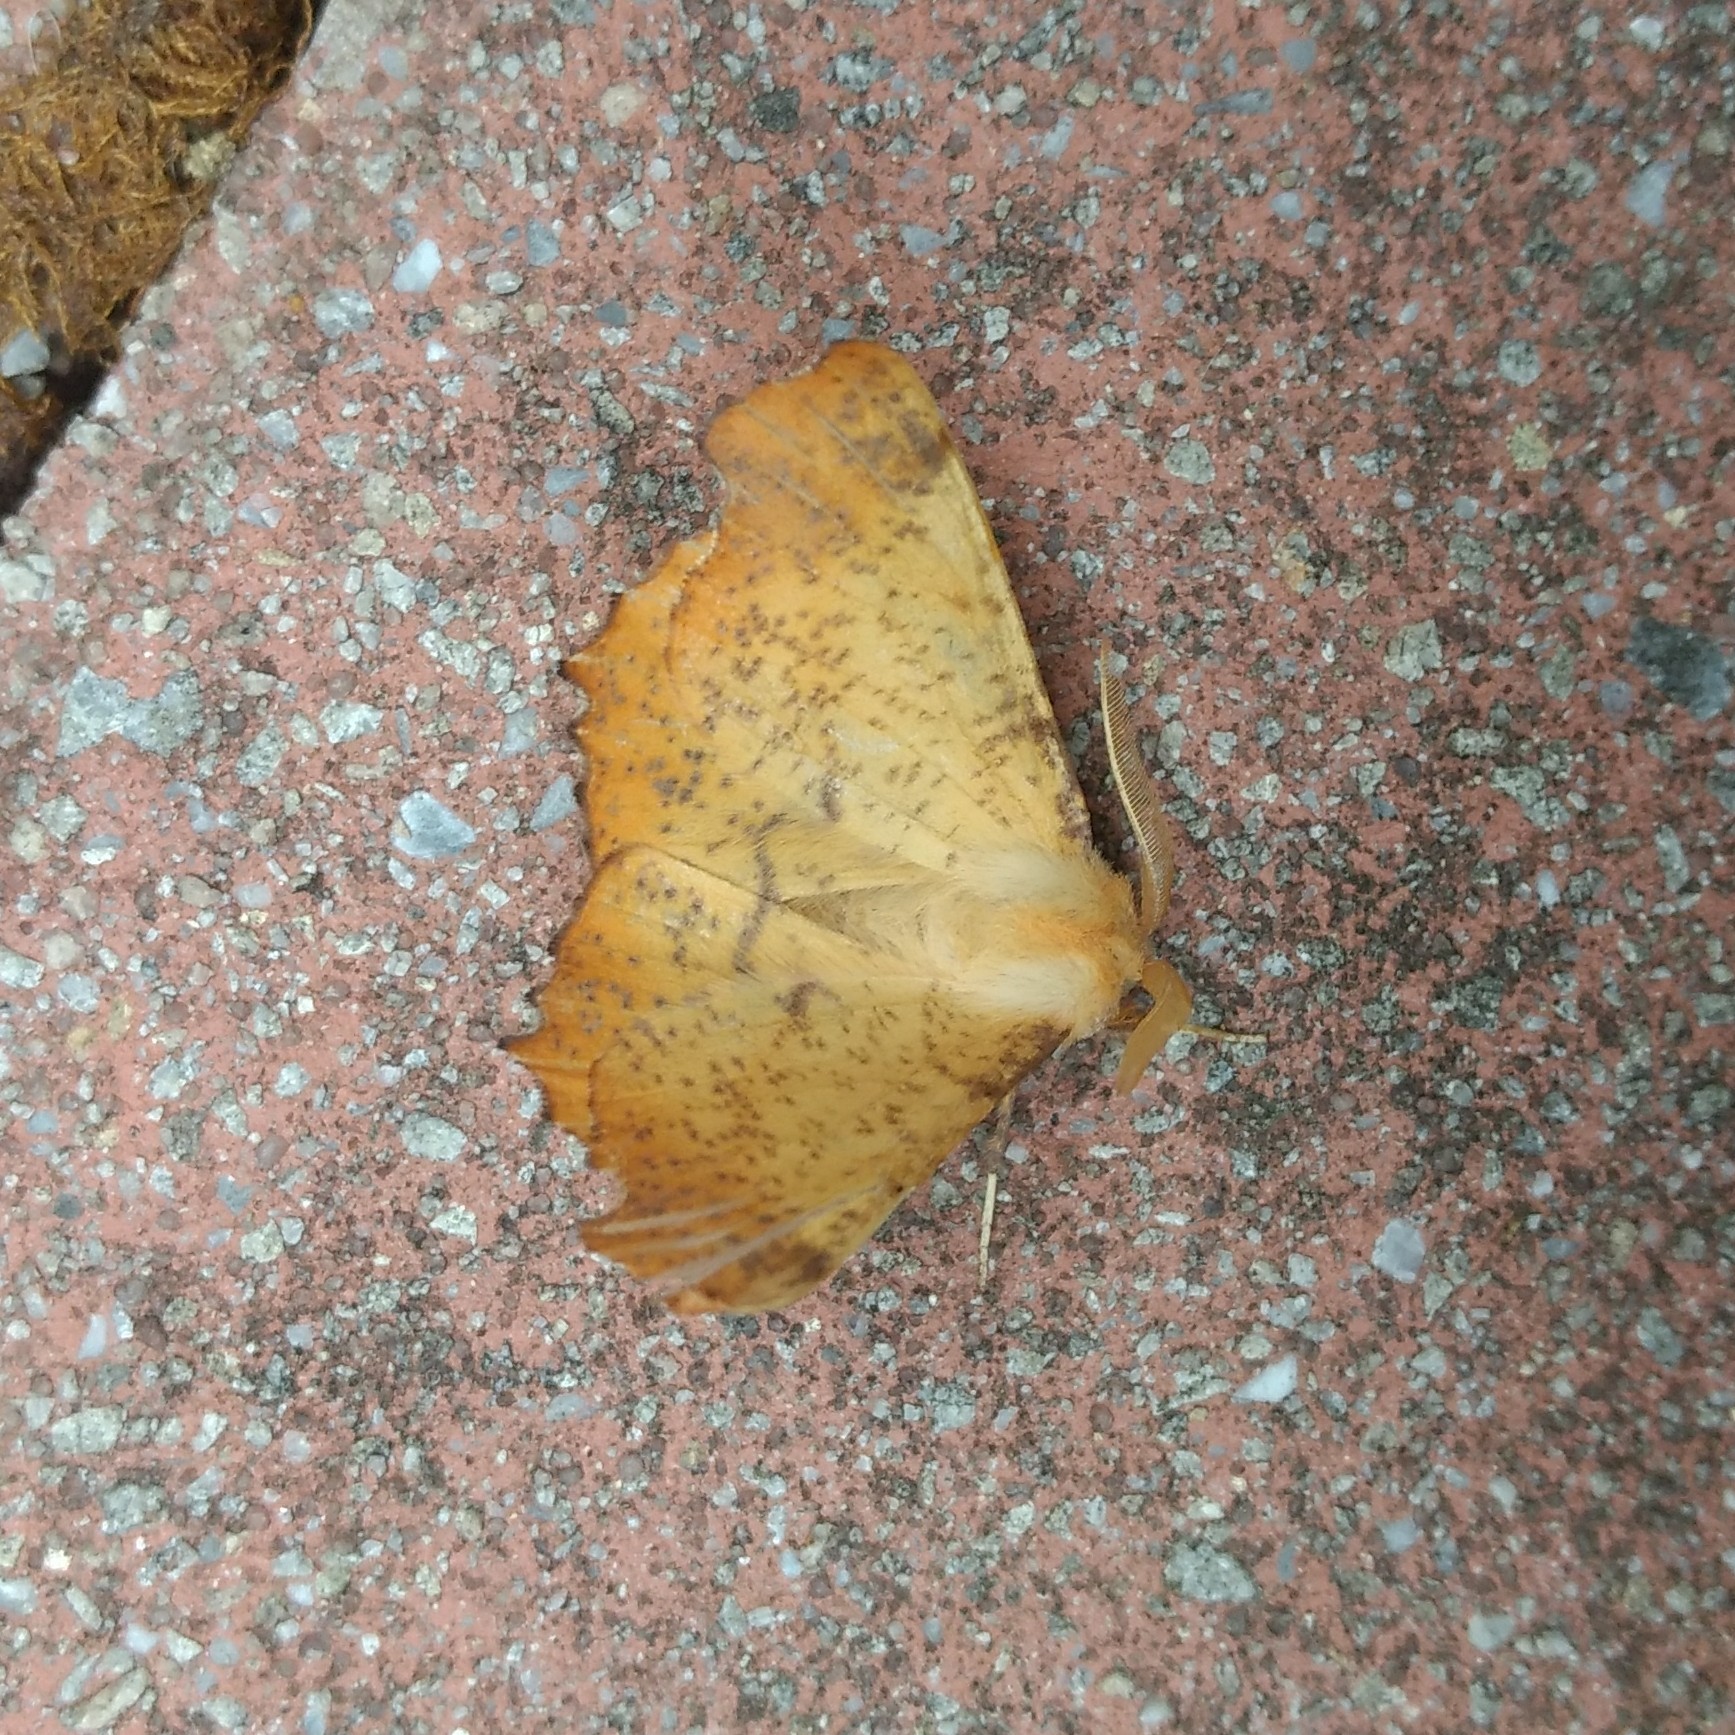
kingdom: Animalia
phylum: Arthropoda
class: Insecta
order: Lepidoptera
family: Geometridae
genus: Ennomos
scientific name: Ennomos magnaria
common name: Maple spanworm
